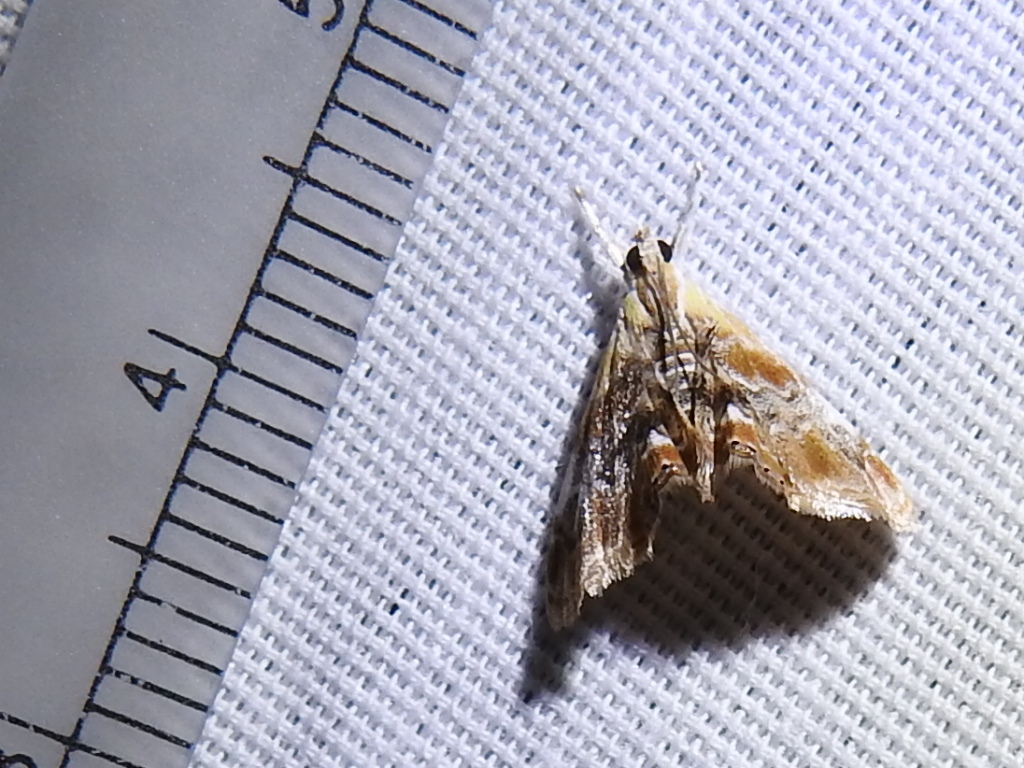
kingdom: Animalia
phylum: Arthropoda
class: Insecta
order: Lepidoptera
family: Crambidae
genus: Dicymolomia
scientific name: Dicymolomia julianalis
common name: Julia's dicymolomia moth
